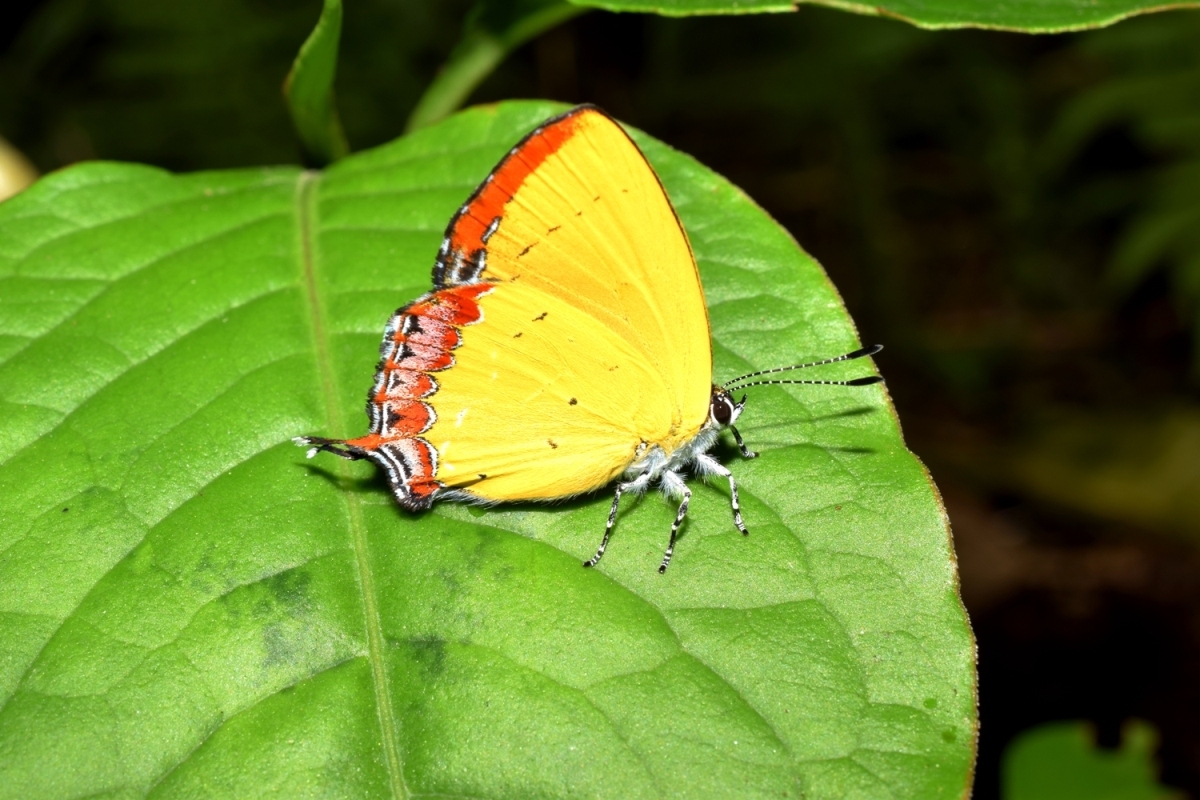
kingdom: Animalia
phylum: Arthropoda
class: Insecta
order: Lepidoptera
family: Lycaenidae
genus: Heliophorus
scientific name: Heliophorus epicles
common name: Purple sapphire
